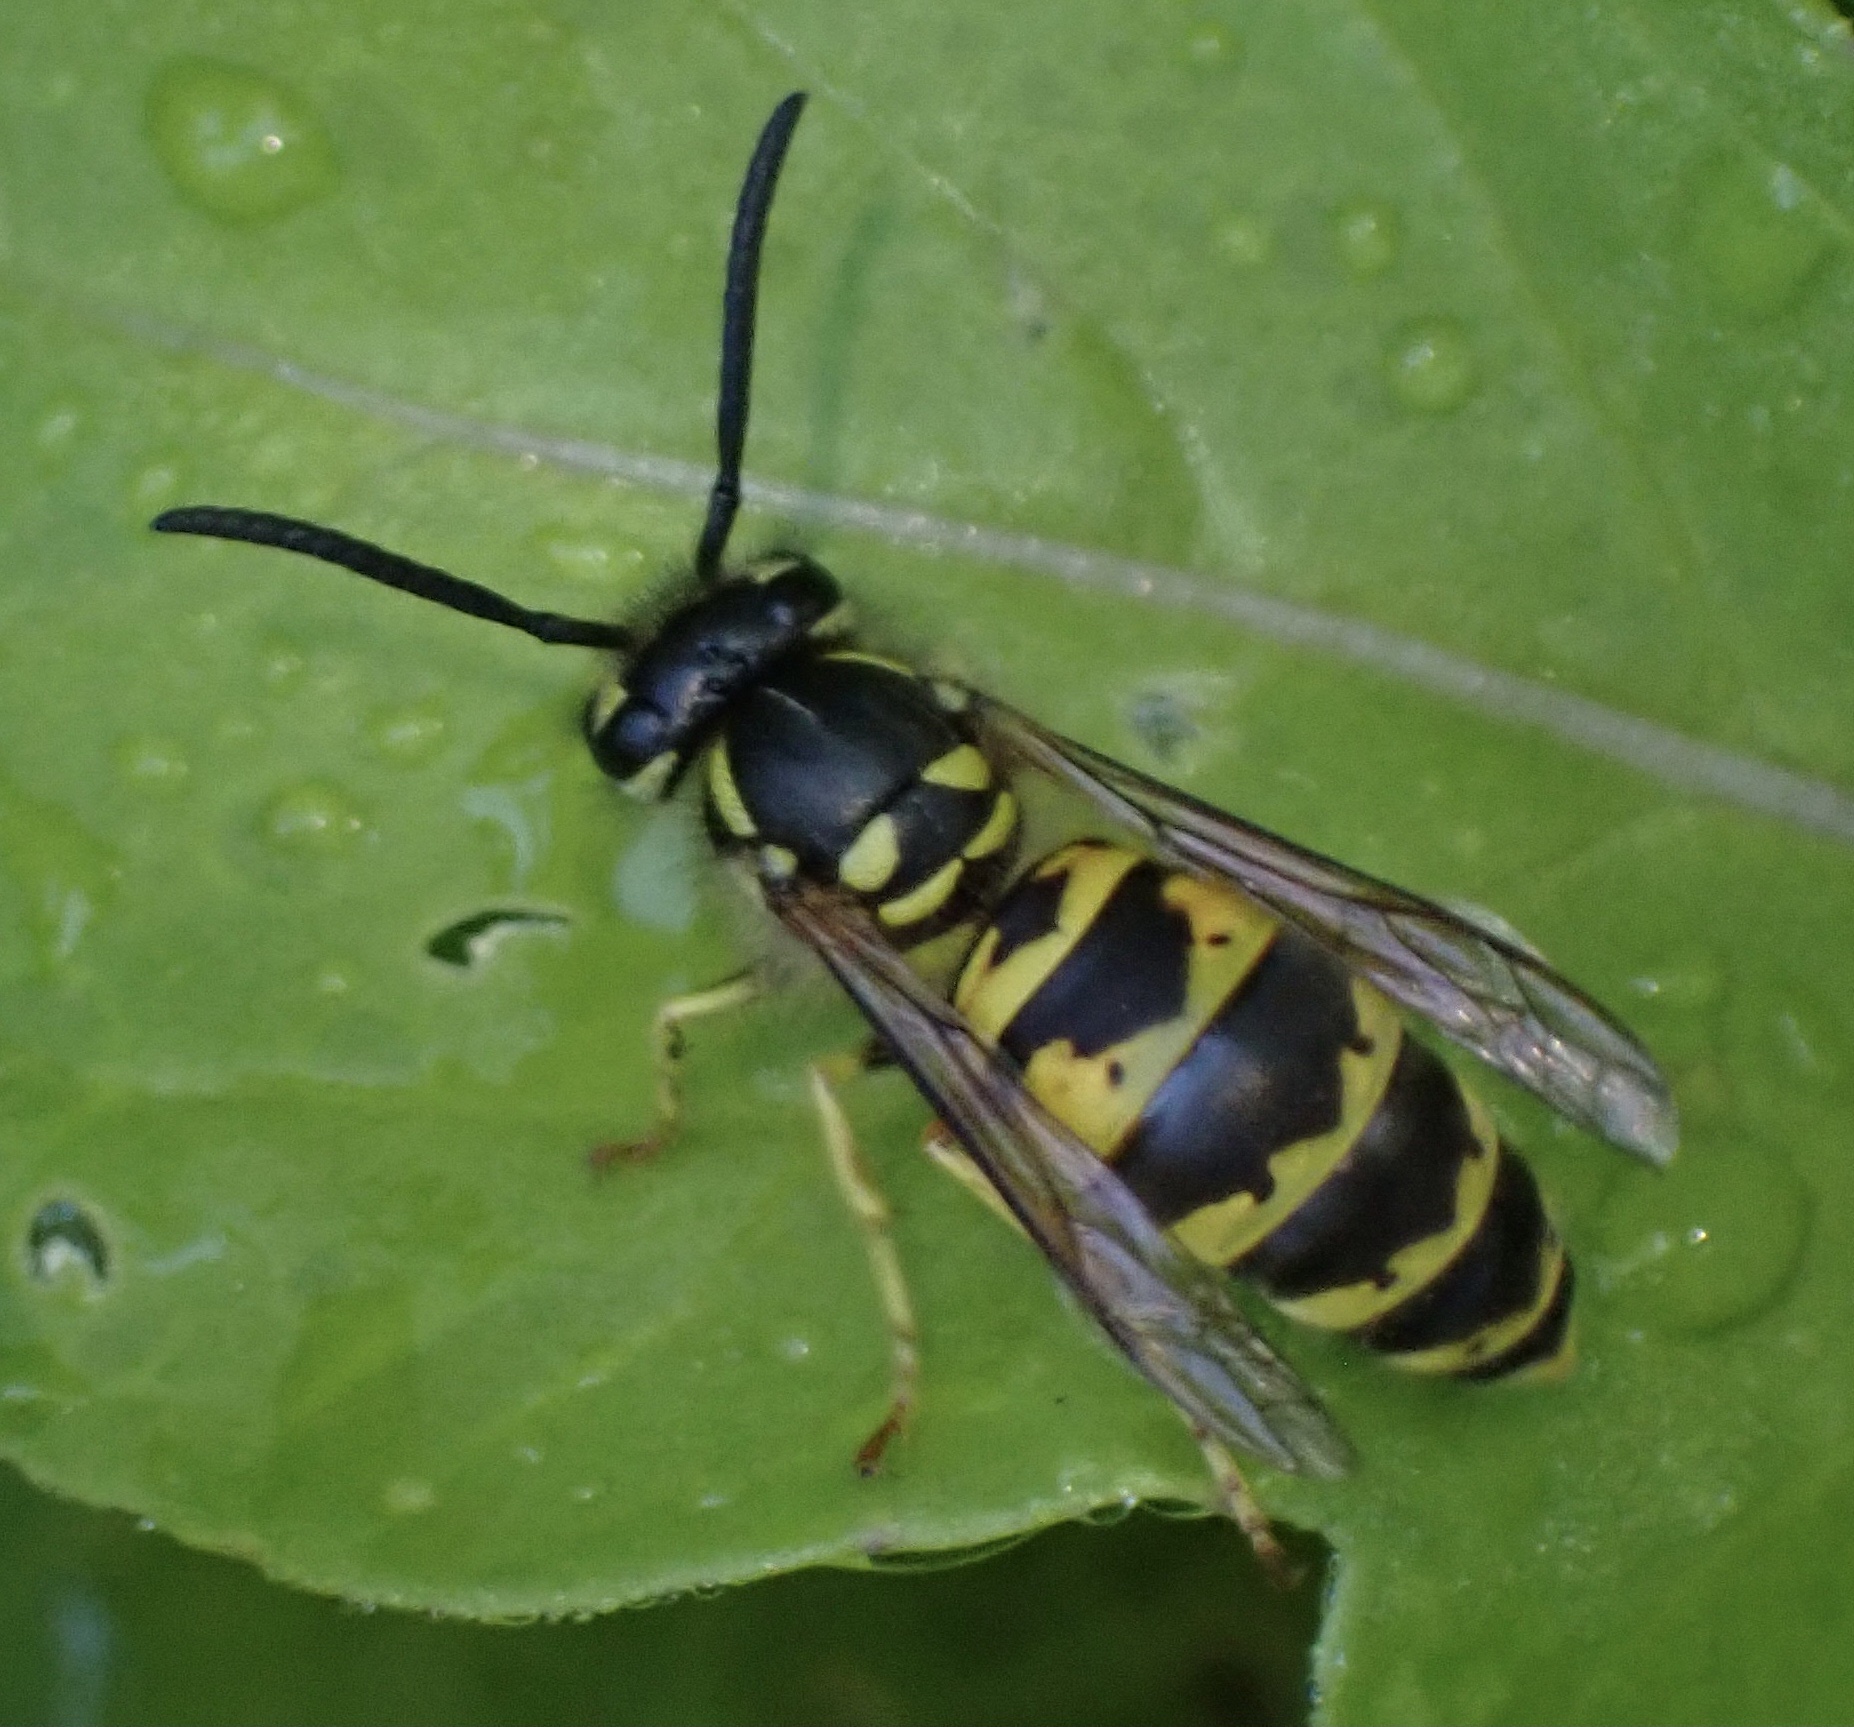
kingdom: Animalia
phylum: Arthropoda
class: Insecta
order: Hymenoptera
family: Vespidae
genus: Vespula
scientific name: Vespula vulgaris
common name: Common wasp
